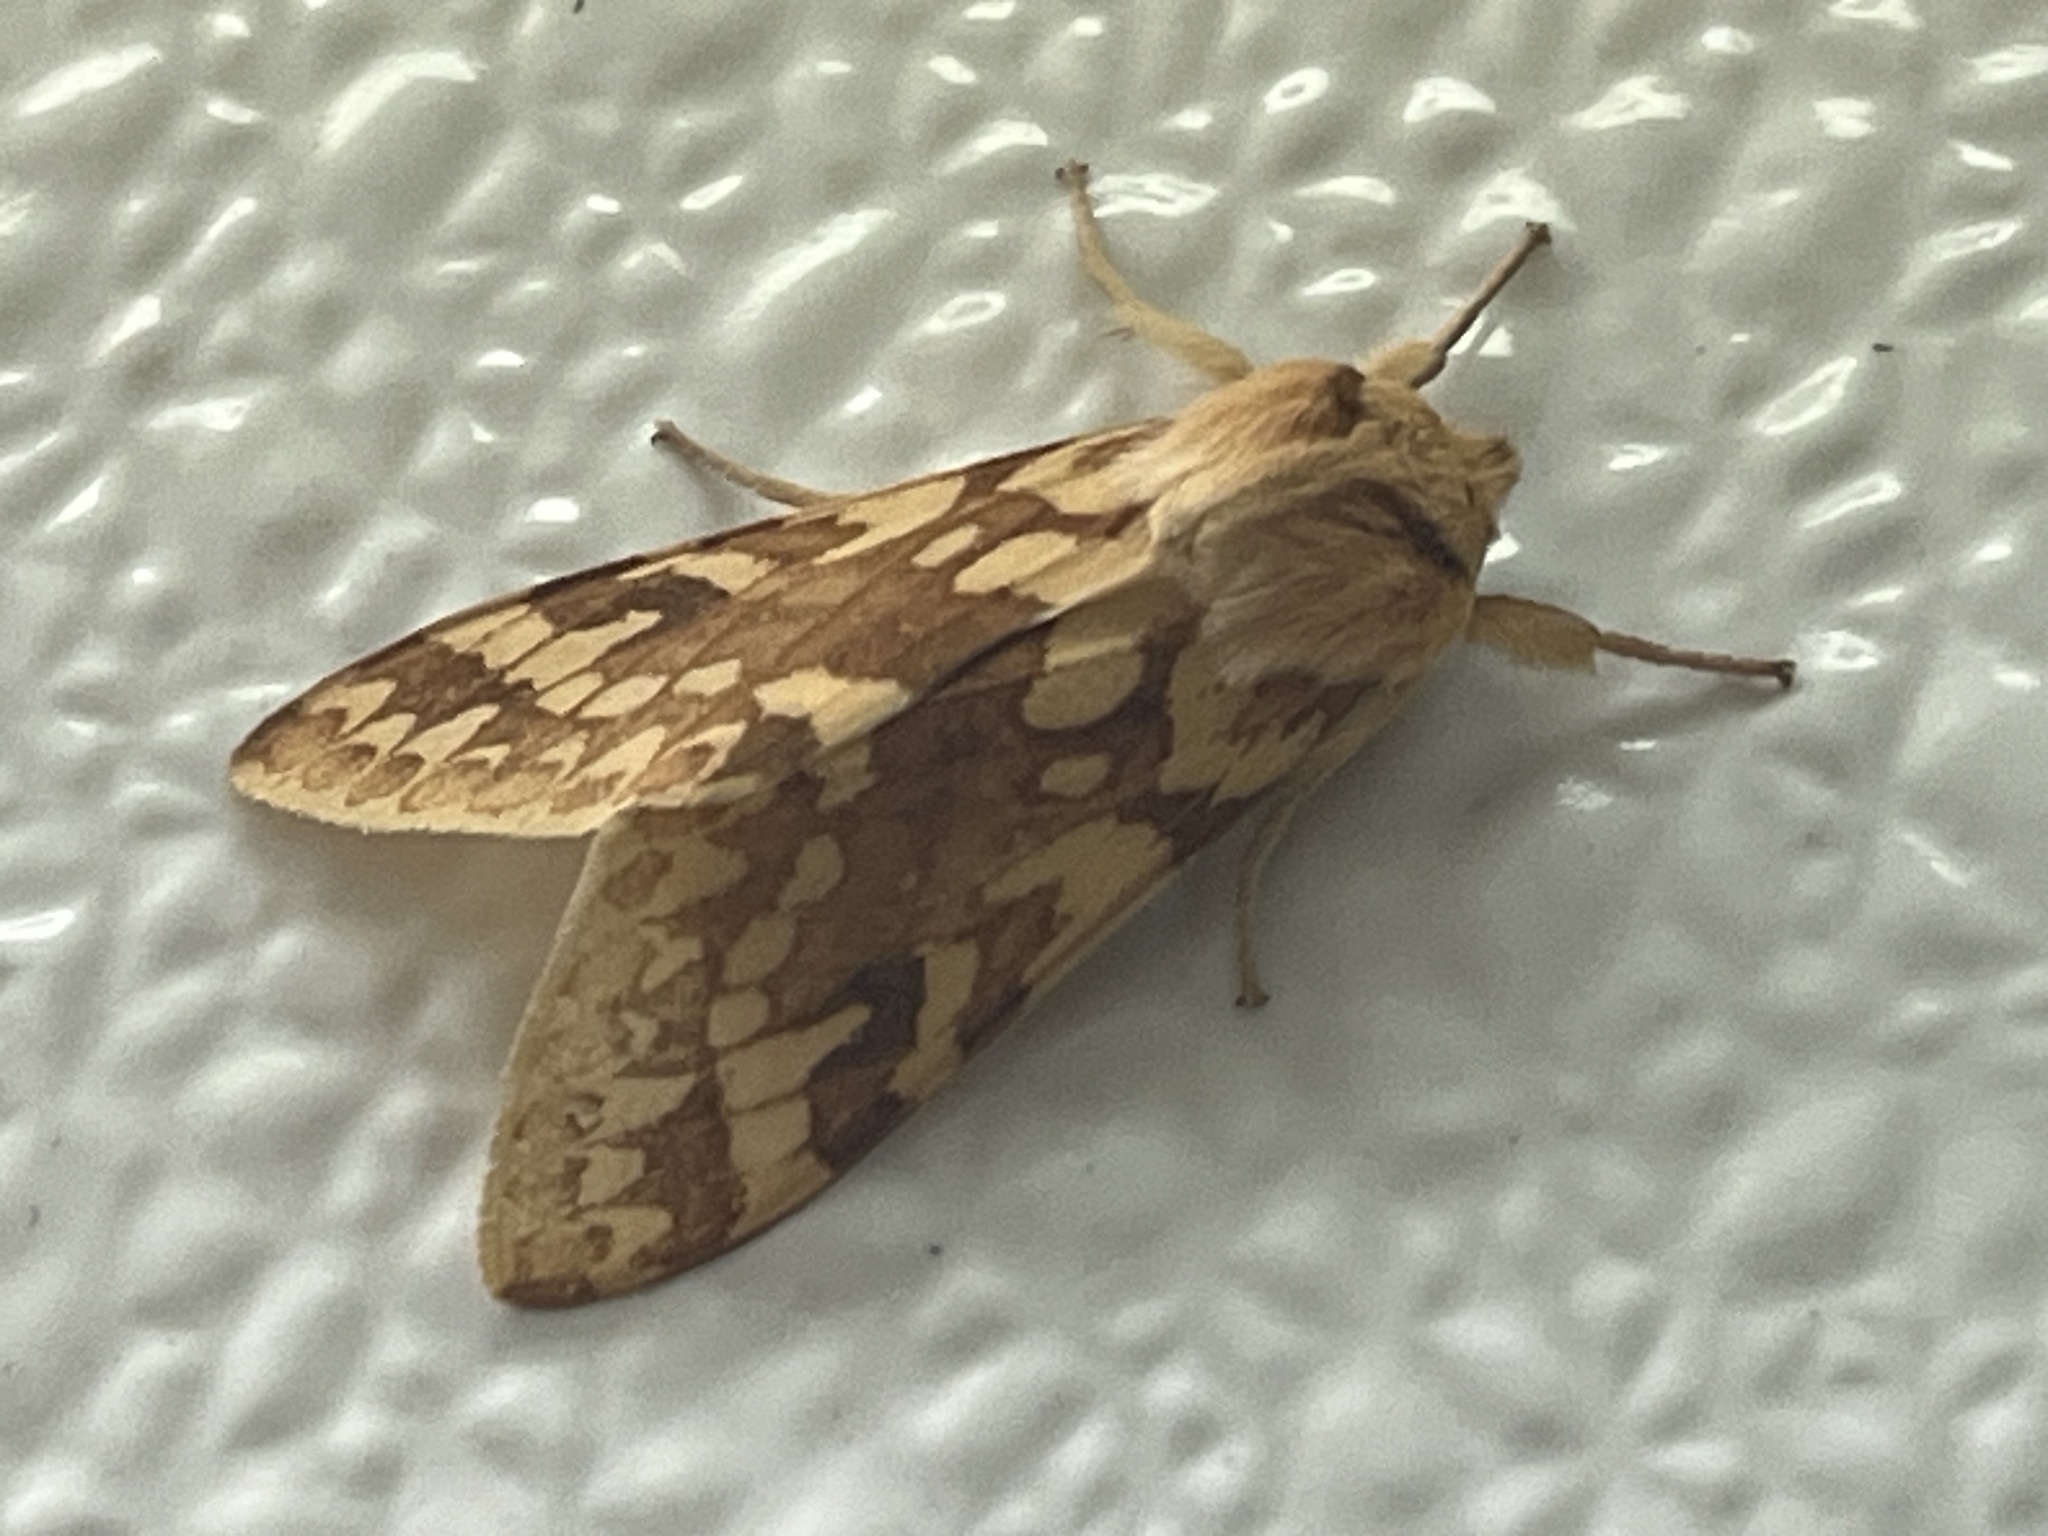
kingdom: Animalia
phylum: Arthropoda
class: Insecta
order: Lepidoptera
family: Erebidae
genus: Lophocampa
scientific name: Lophocampa maculata
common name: Spotted tussock moth
